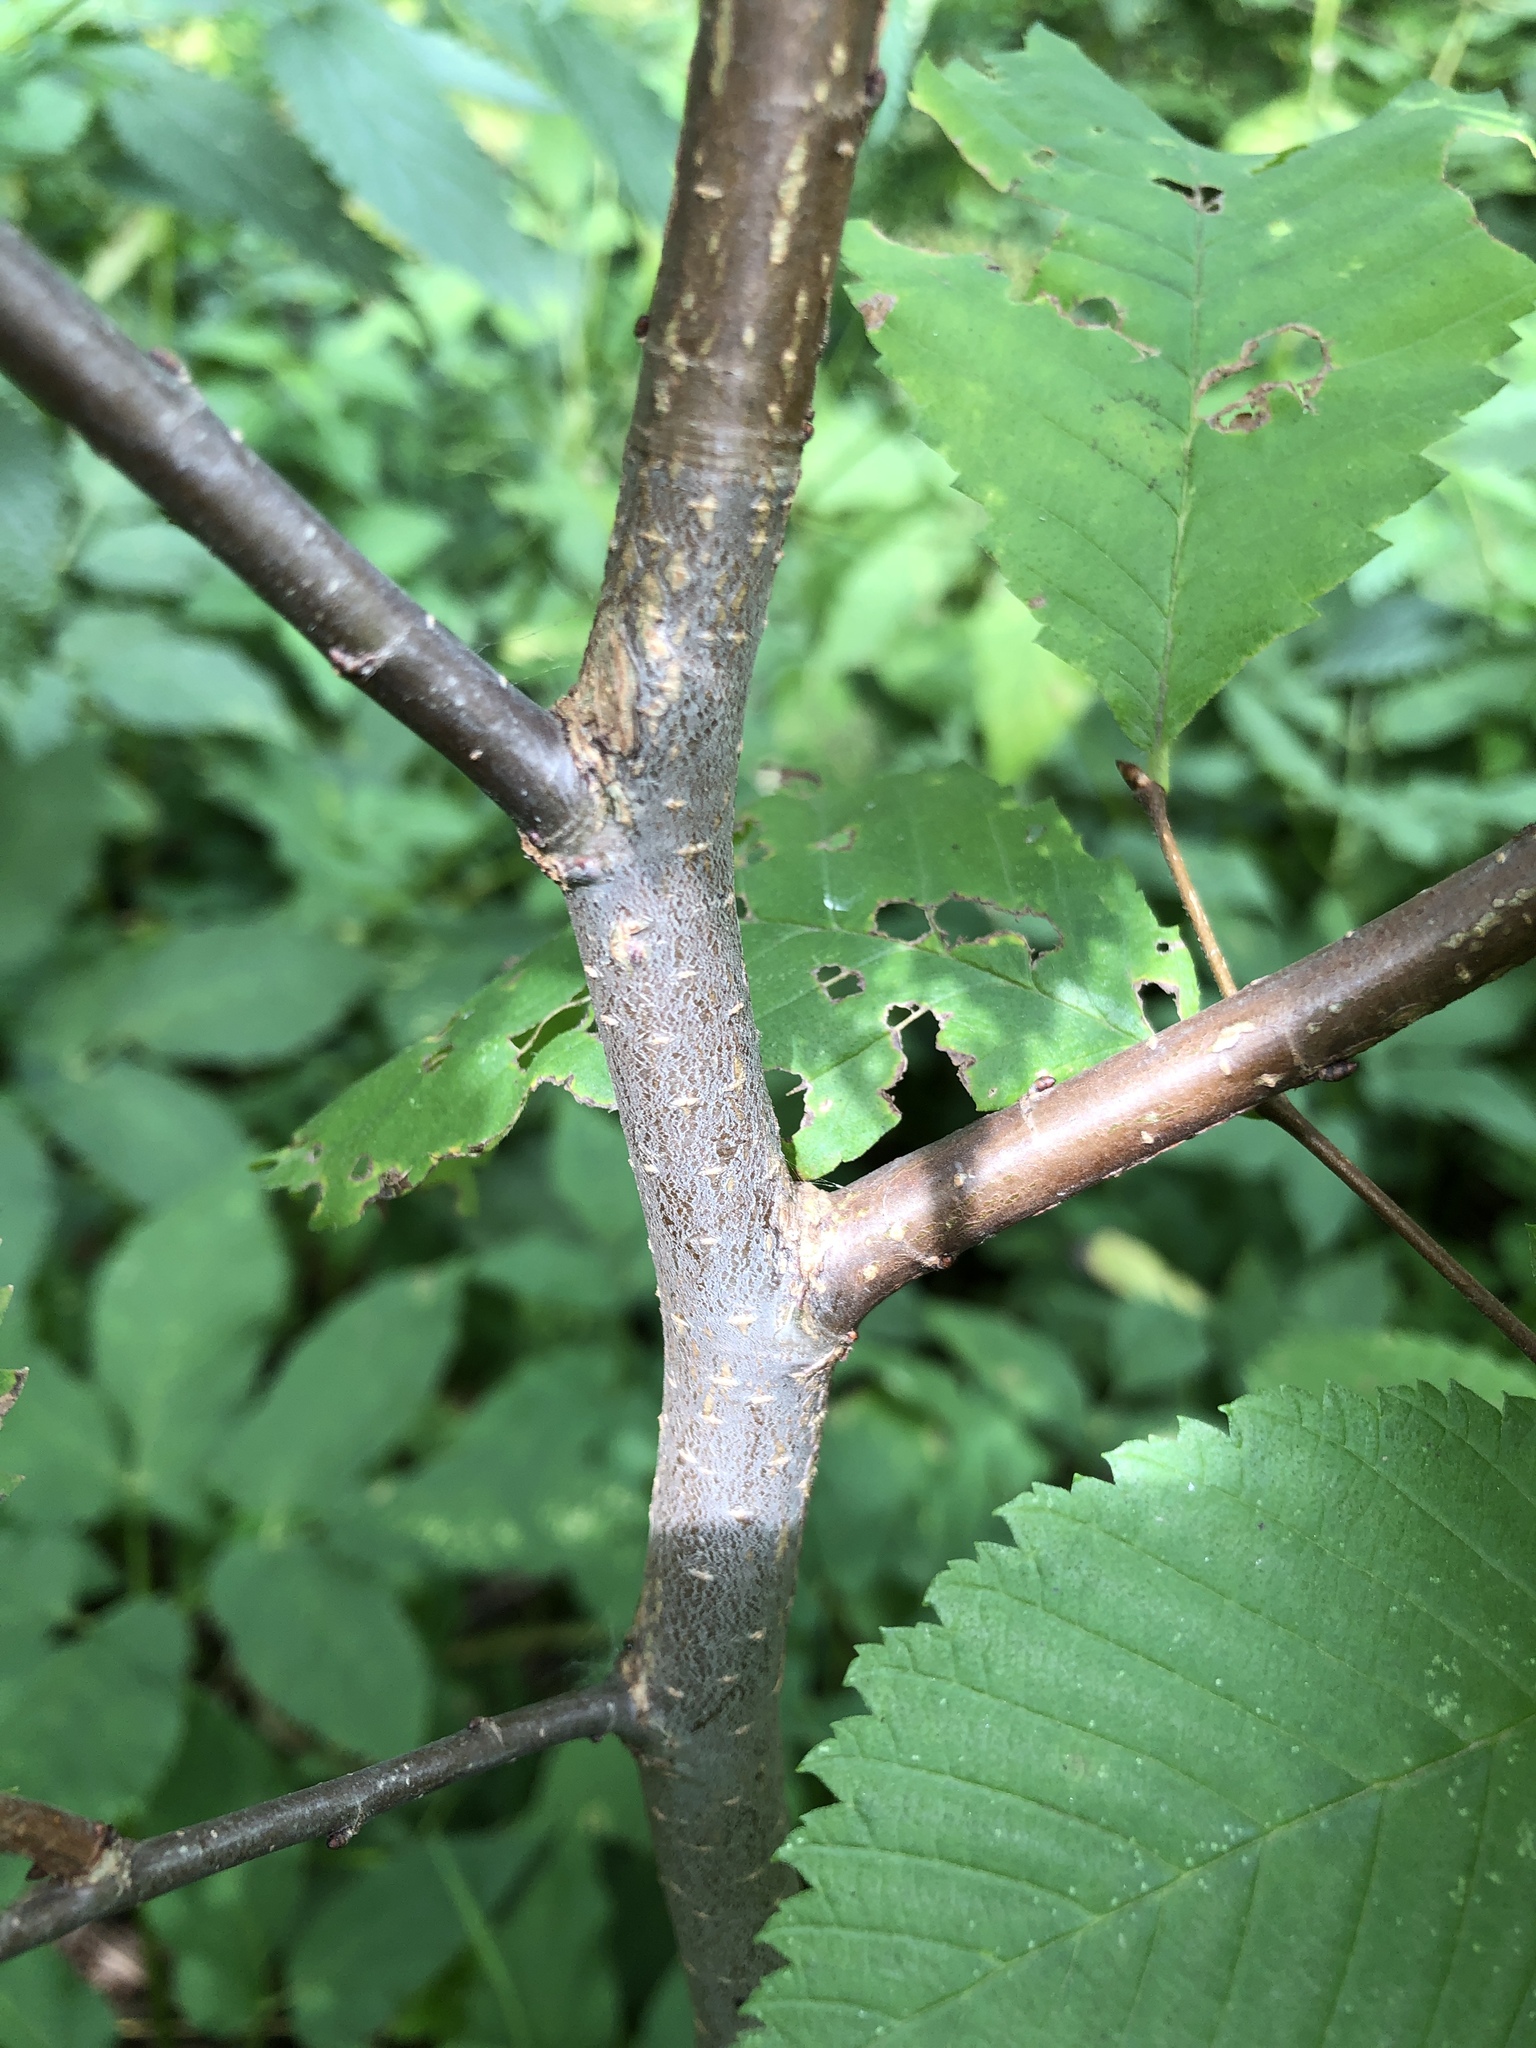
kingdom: Plantae
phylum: Tracheophyta
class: Magnoliopsida
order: Rosales
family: Ulmaceae
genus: Ulmus
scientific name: Ulmus laevis
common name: European white-elm
